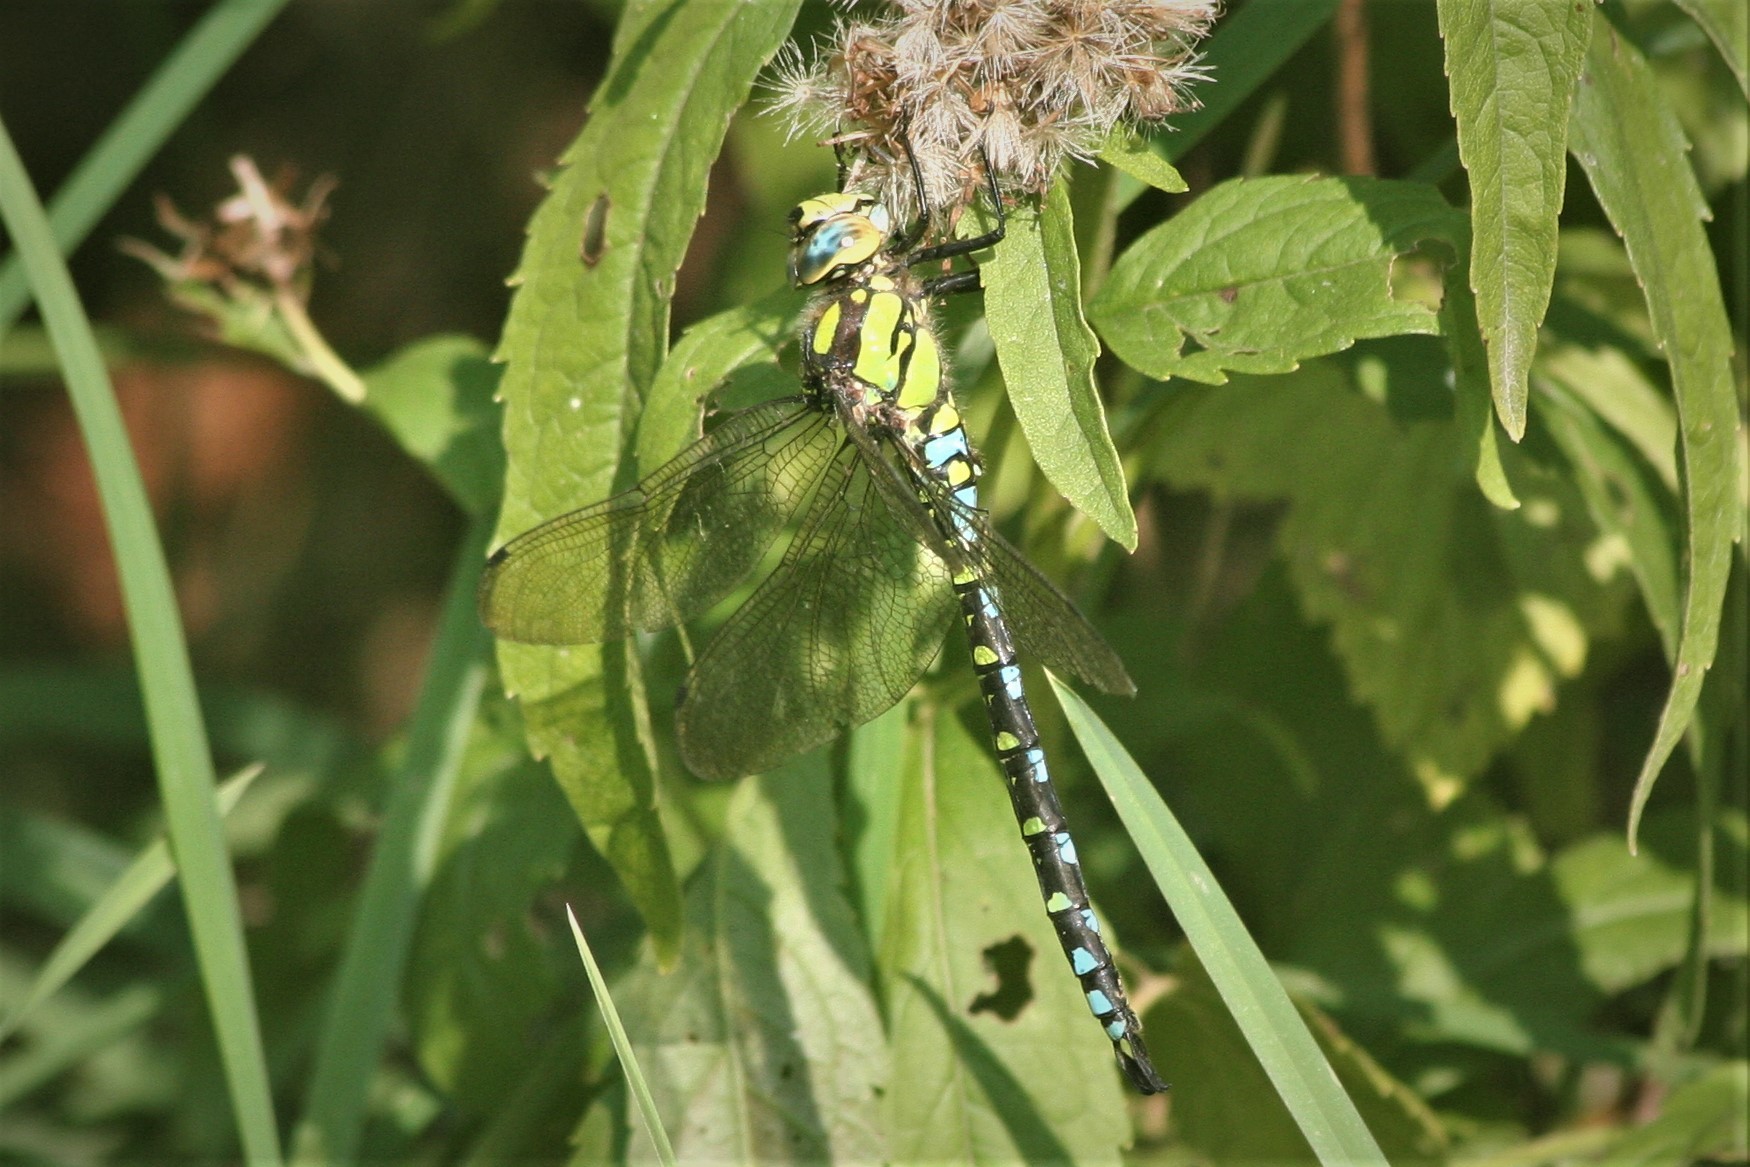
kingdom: Animalia
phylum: Arthropoda
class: Insecta
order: Odonata
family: Aeshnidae
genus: Aeshna
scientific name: Aeshna cyanea
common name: Southern hawker
